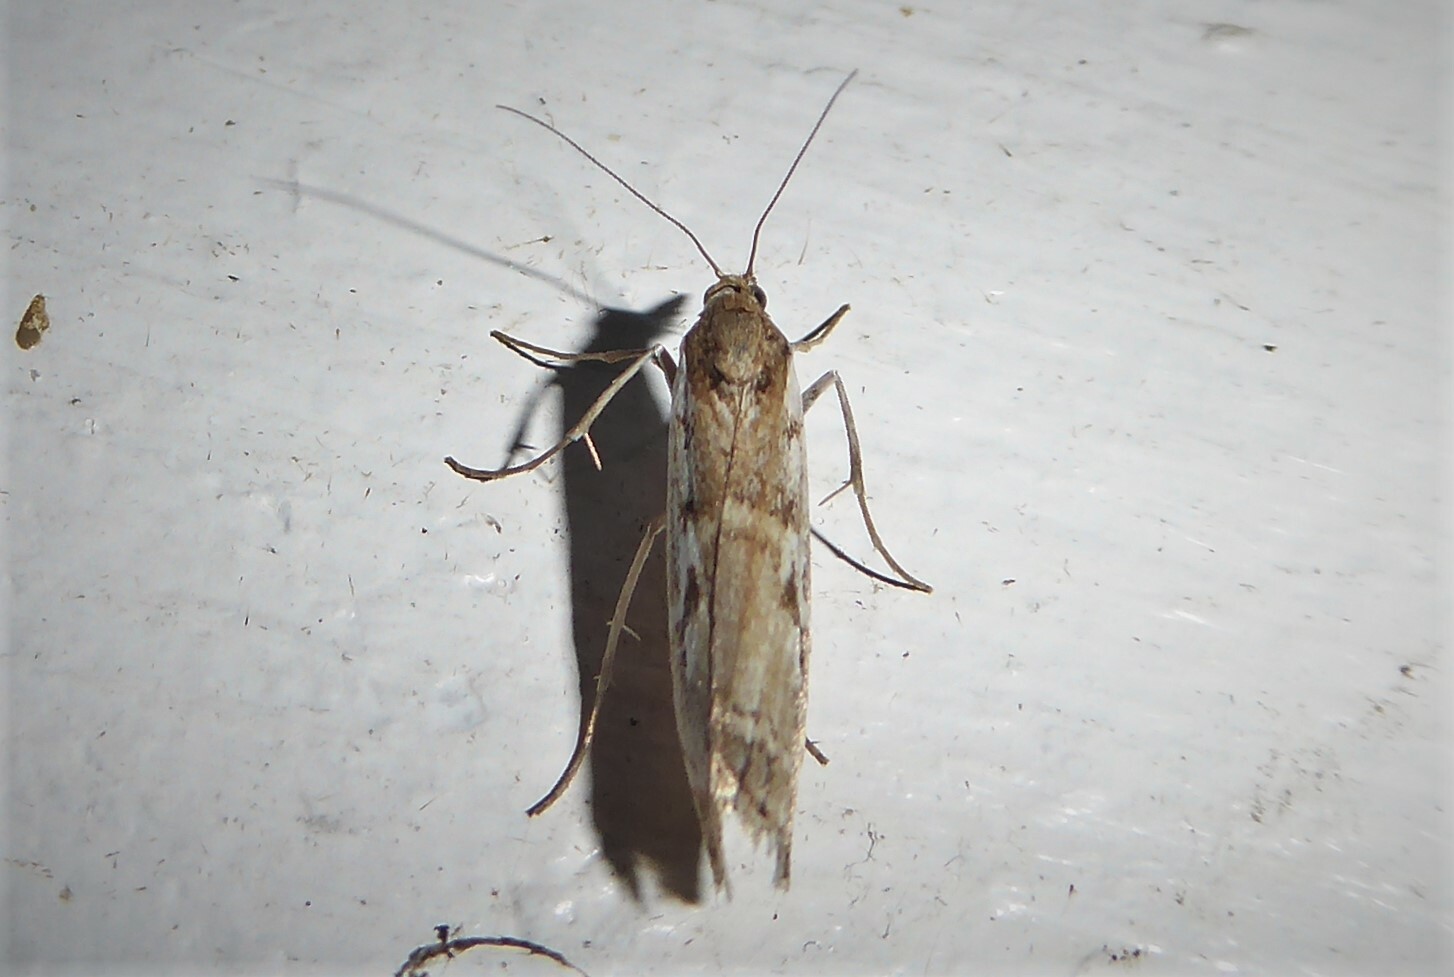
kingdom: Animalia
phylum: Arthropoda
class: Insecta
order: Lepidoptera
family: Crambidae
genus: Orocrambus
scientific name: Orocrambus vulgaris
